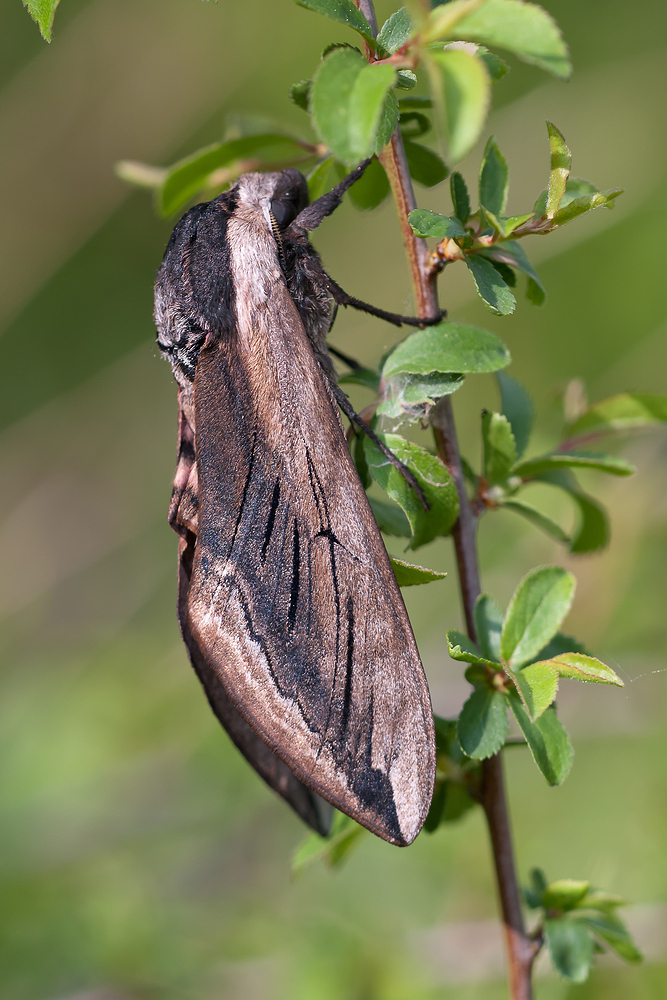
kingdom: Animalia
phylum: Arthropoda
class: Insecta
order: Lepidoptera
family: Sphingidae
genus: Sphinx
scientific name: Sphinx ligustri
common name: Privet hawk-moth
